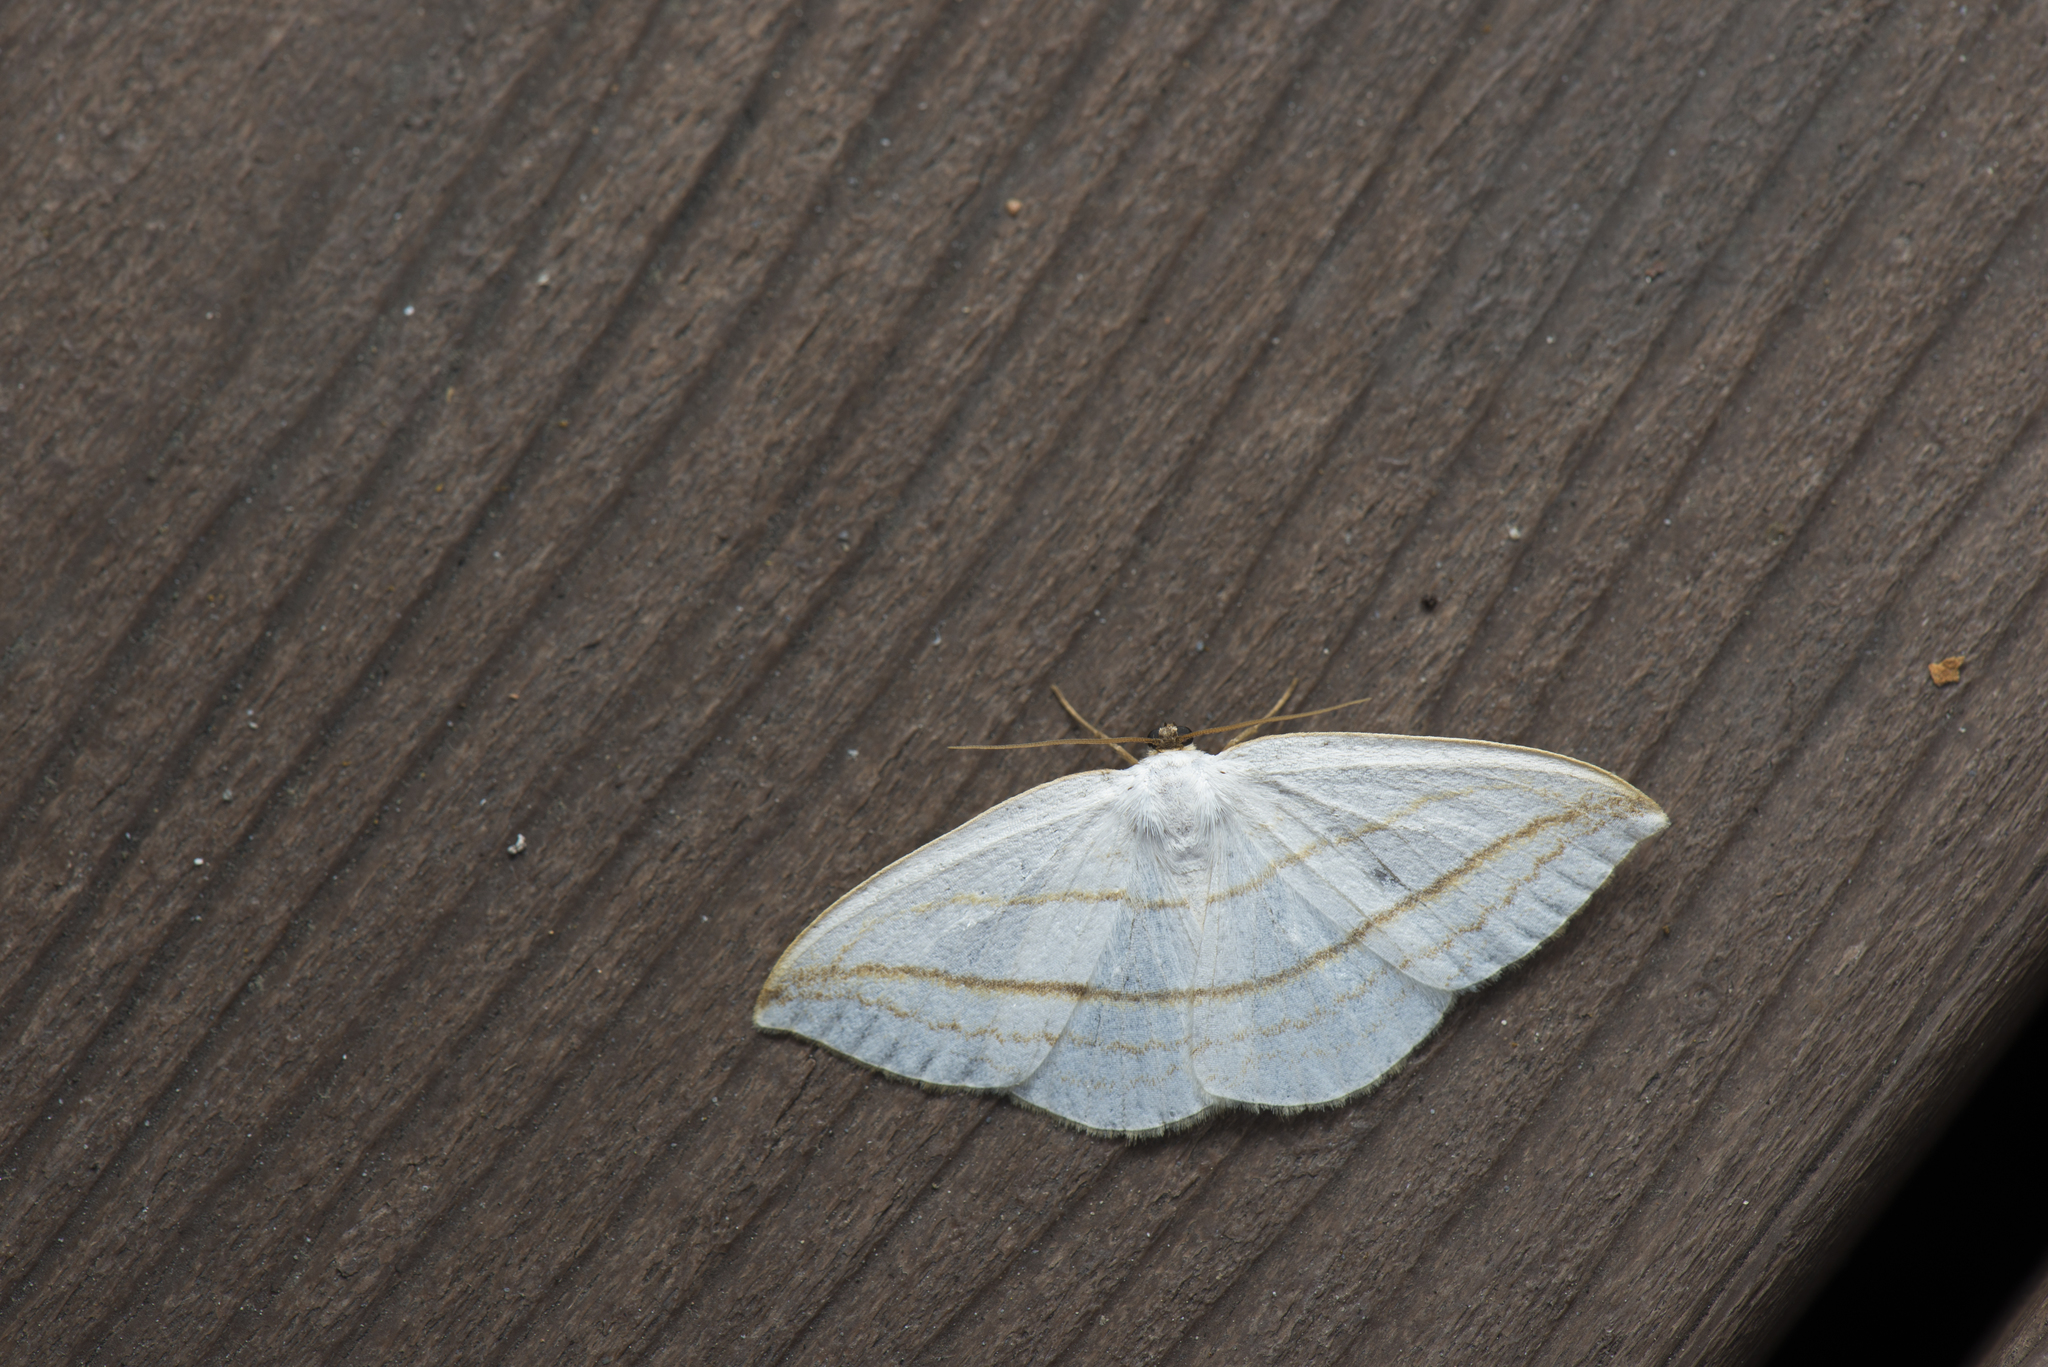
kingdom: Animalia
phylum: Arthropoda
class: Insecta
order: Lepidoptera
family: Drepanidae
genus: Ditrigona
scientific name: Ditrigona conflexaria
